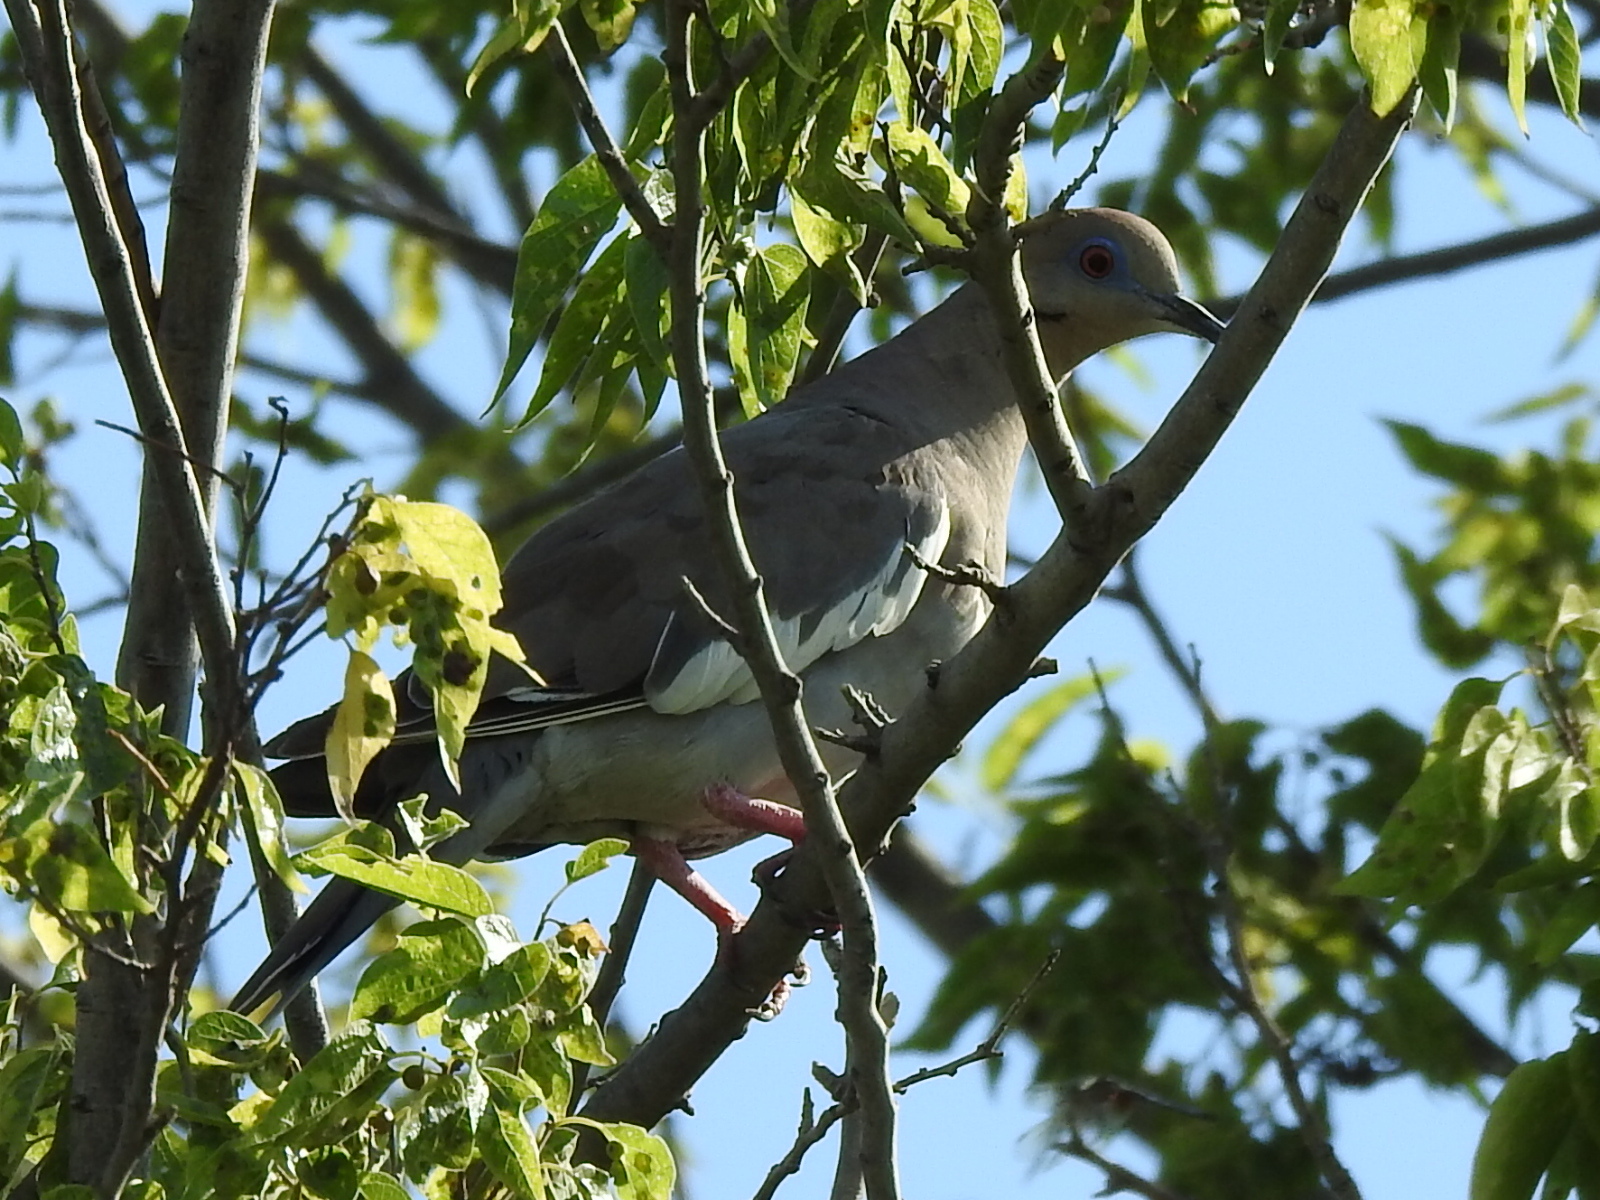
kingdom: Animalia
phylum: Chordata
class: Aves
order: Columbiformes
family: Columbidae
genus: Zenaida
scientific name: Zenaida asiatica
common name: White-winged dove
